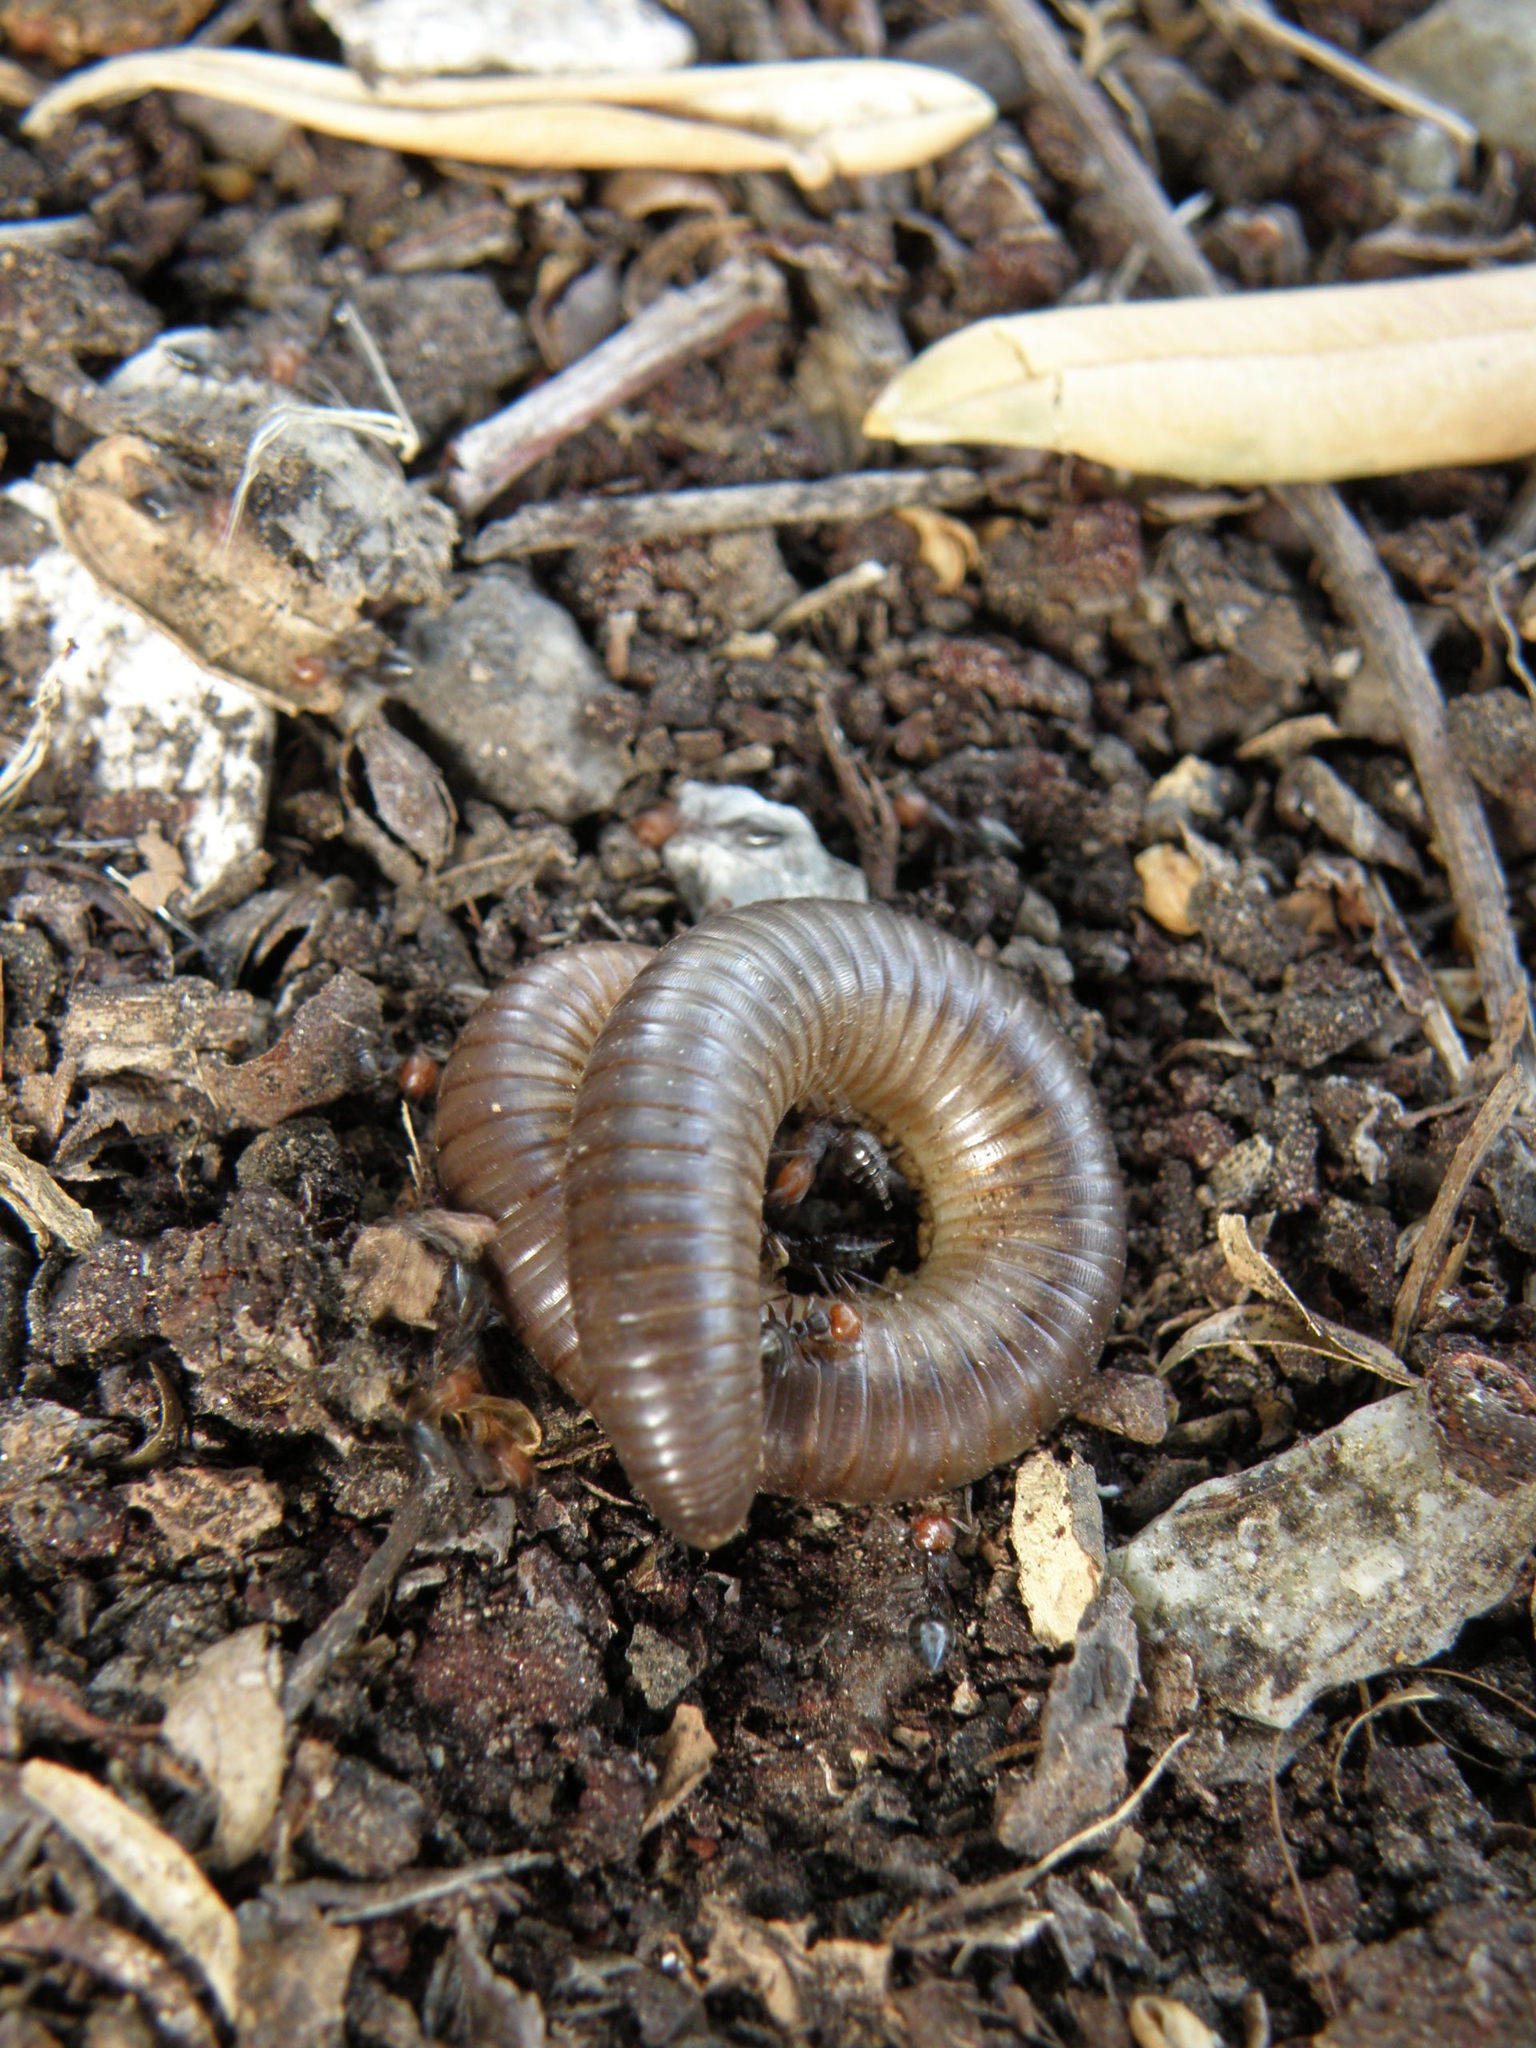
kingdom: Animalia
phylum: Arthropoda
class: Diplopoda
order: Julida
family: Julidae
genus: Pachyiulus
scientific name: Pachyiulus flavipes
